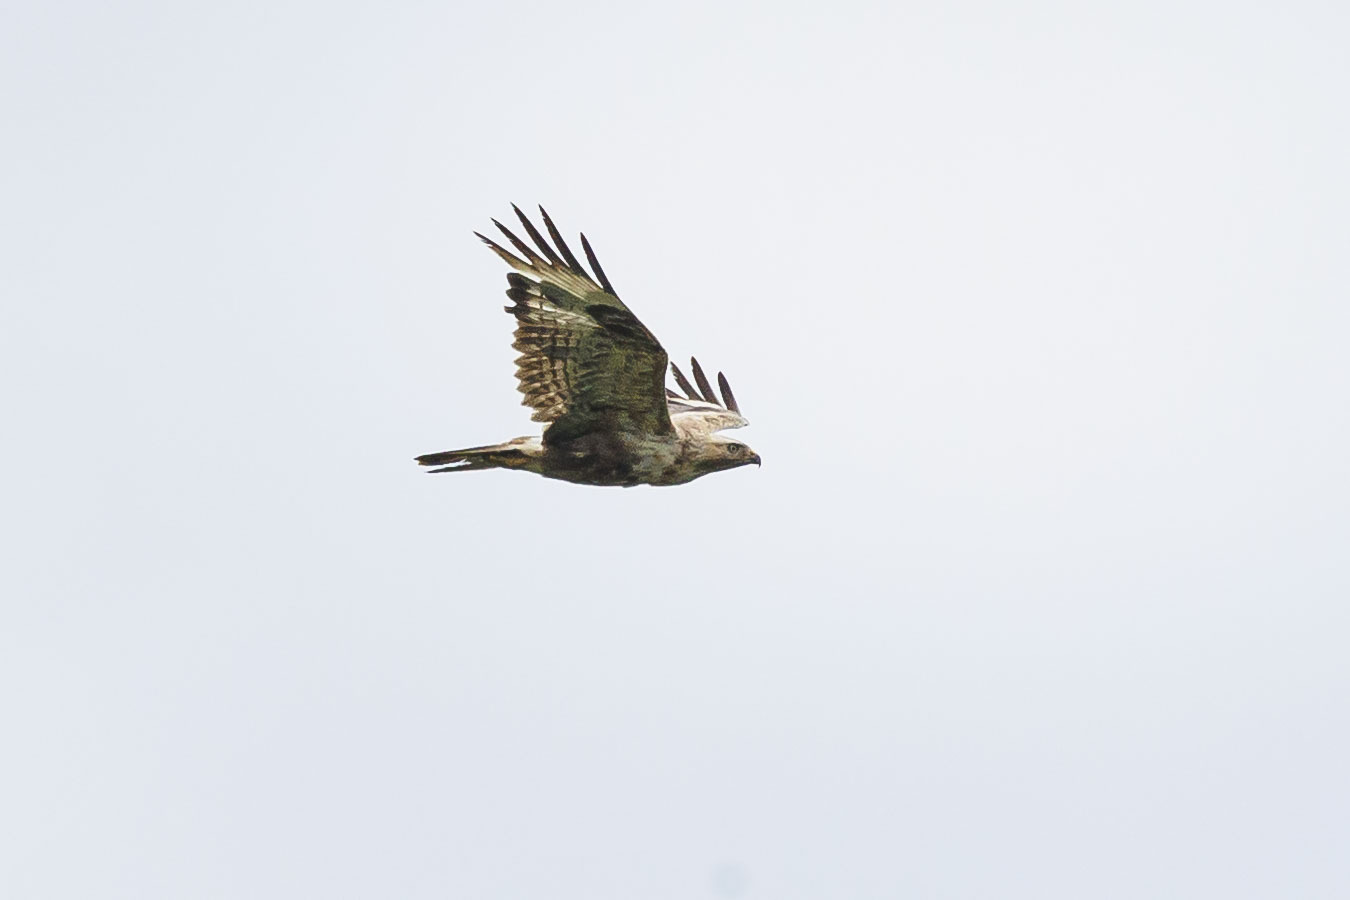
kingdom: Animalia
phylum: Chordata
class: Aves
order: Accipitriformes
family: Accipitridae
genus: Buteo
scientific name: Buteo rufinus
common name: Long-legged buzzard
